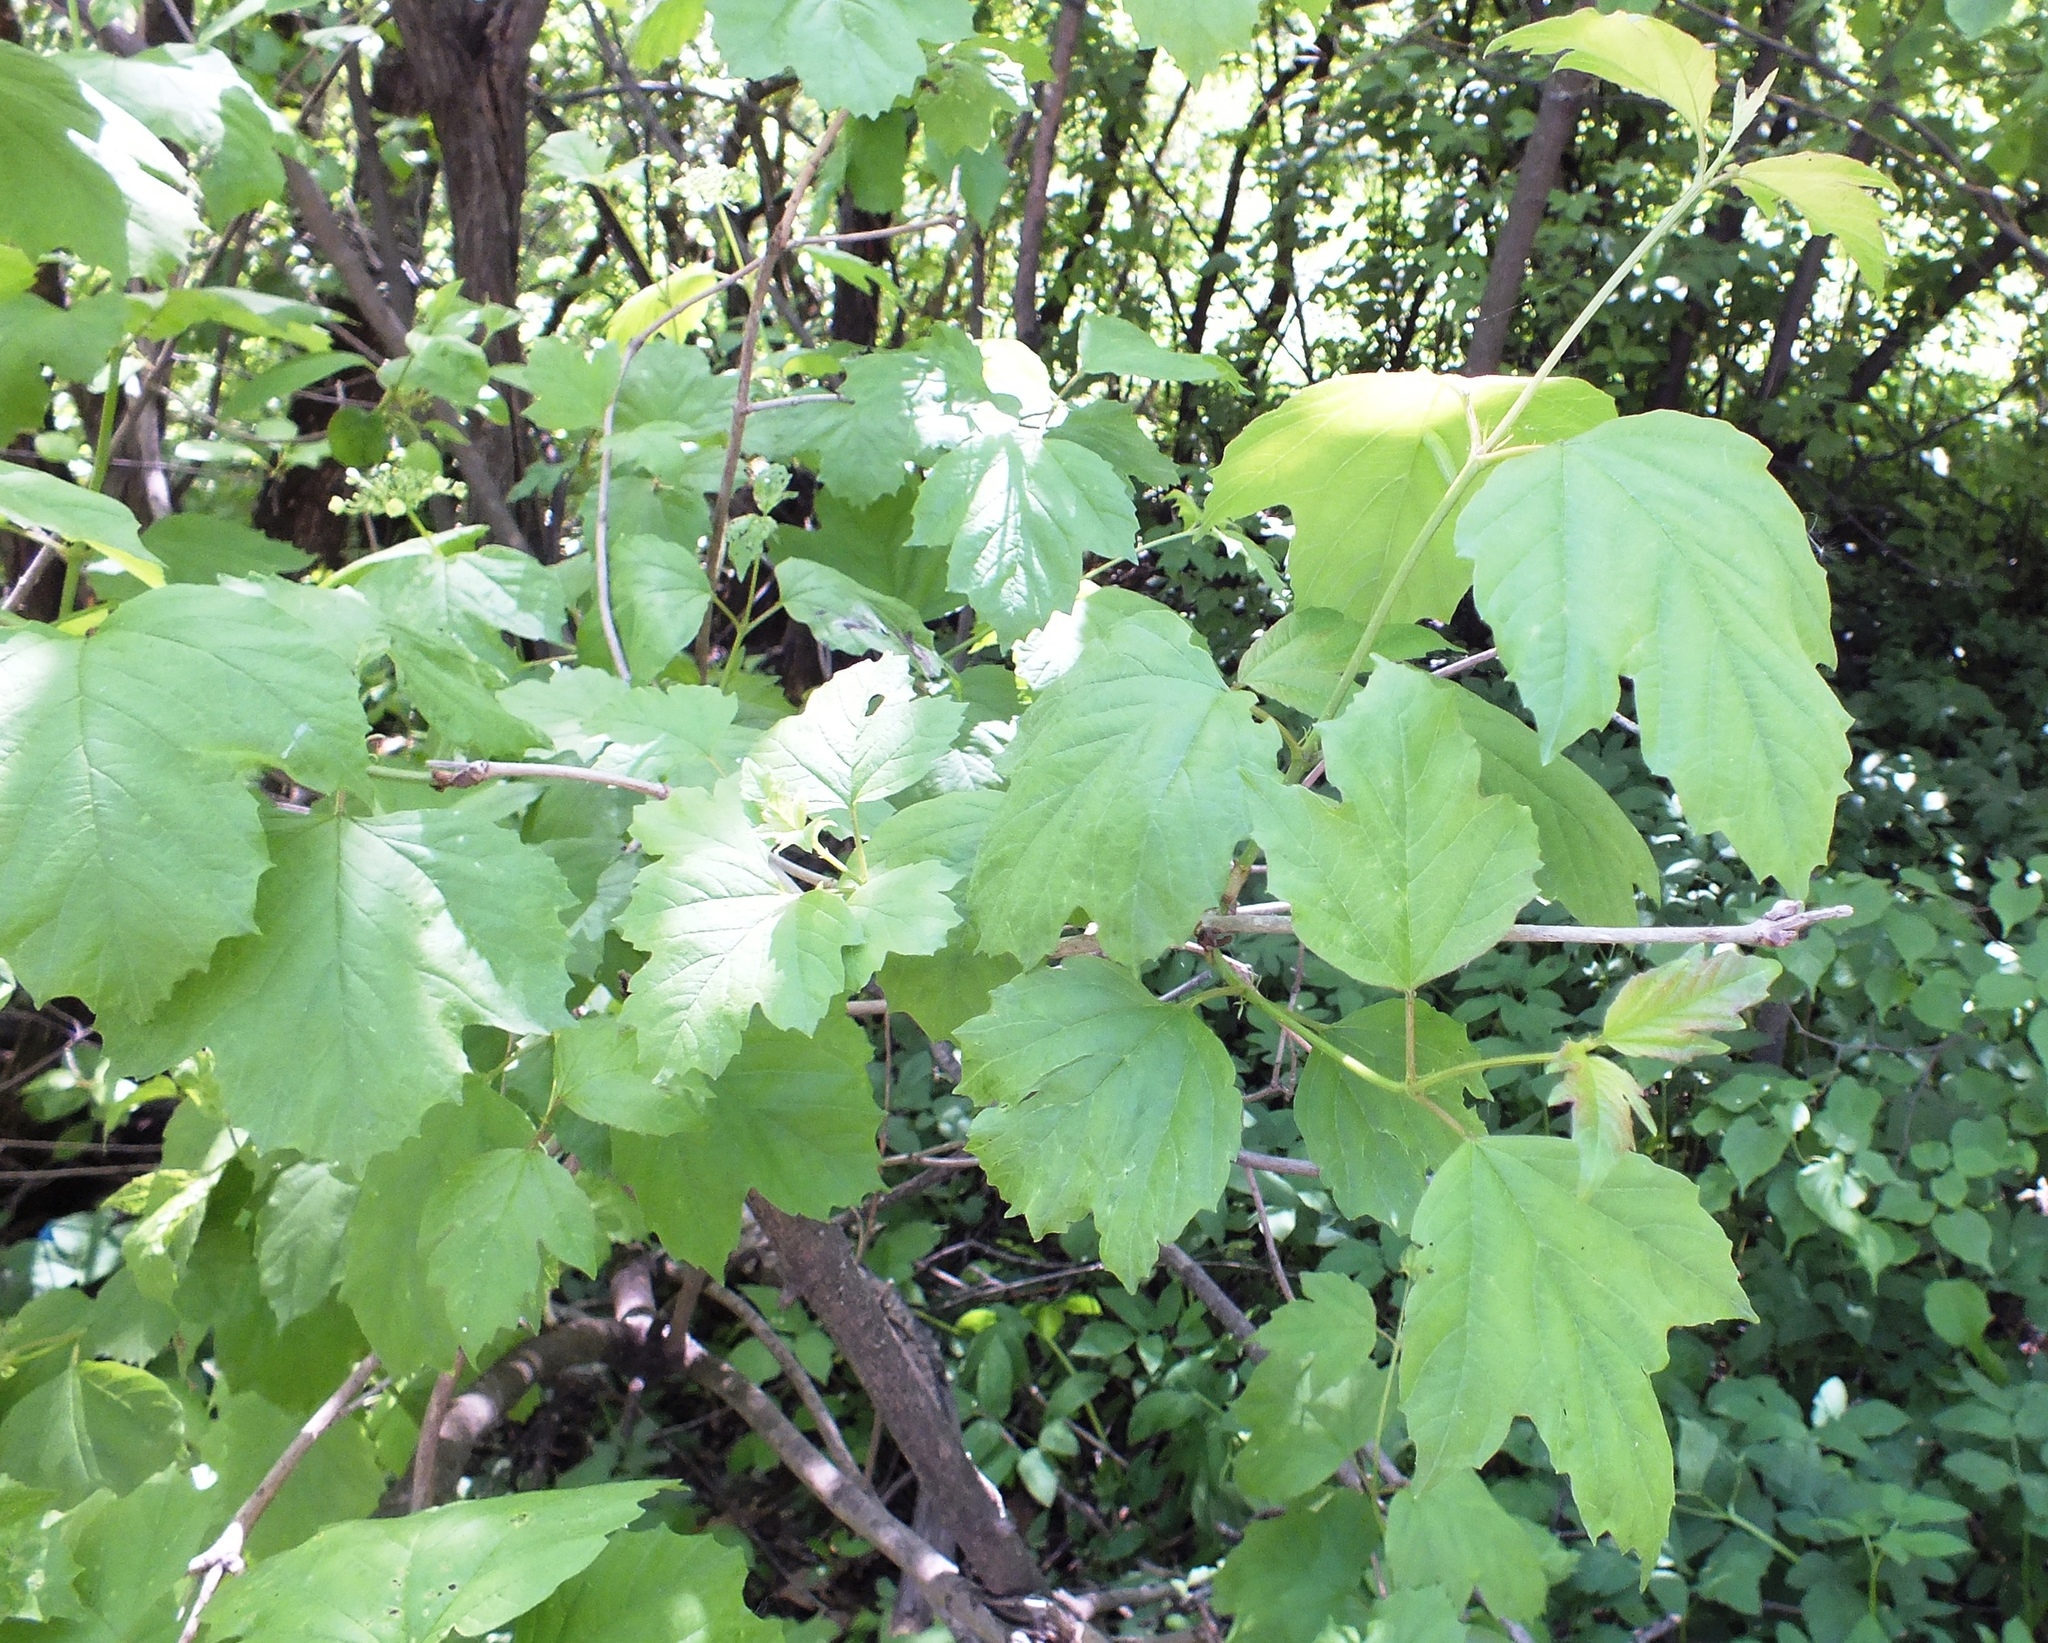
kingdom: Plantae
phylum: Tracheophyta
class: Magnoliopsida
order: Dipsacales
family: Viburnaceae
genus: Viburnum
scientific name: Viburnum opulus
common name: Guelder-rose
